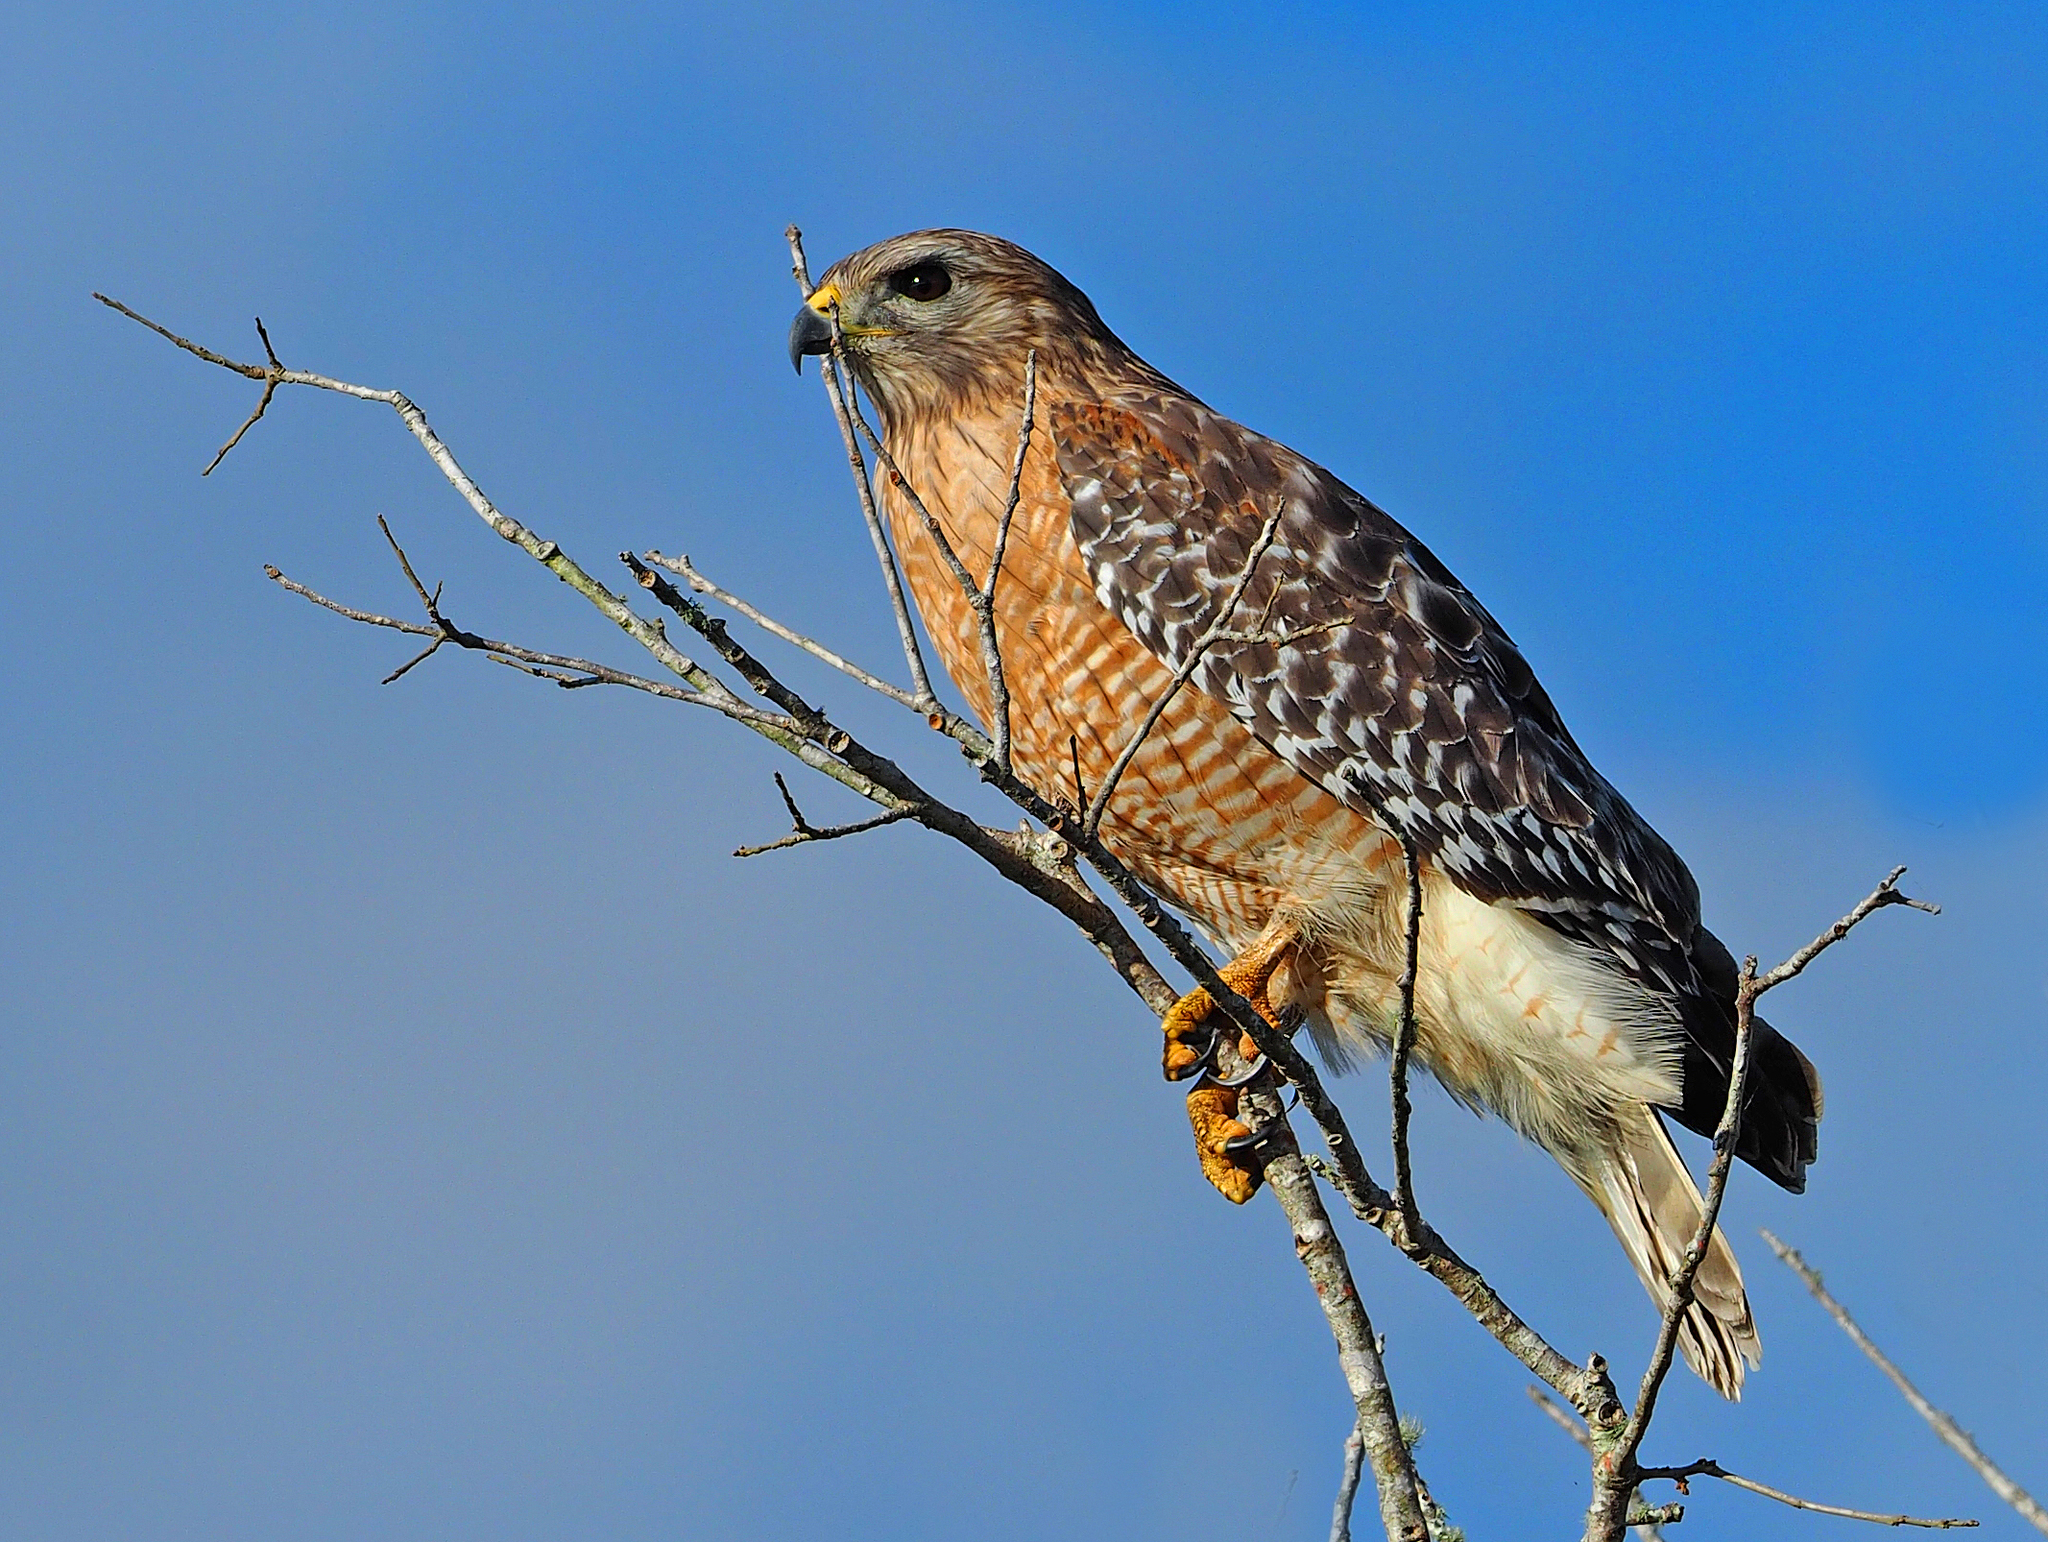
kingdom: Animalia
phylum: Chordata
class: Aves
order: Accipitriformes
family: Accipitridae
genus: Buteo
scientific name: Buteo lineatus
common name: Red-shouldered hawk
